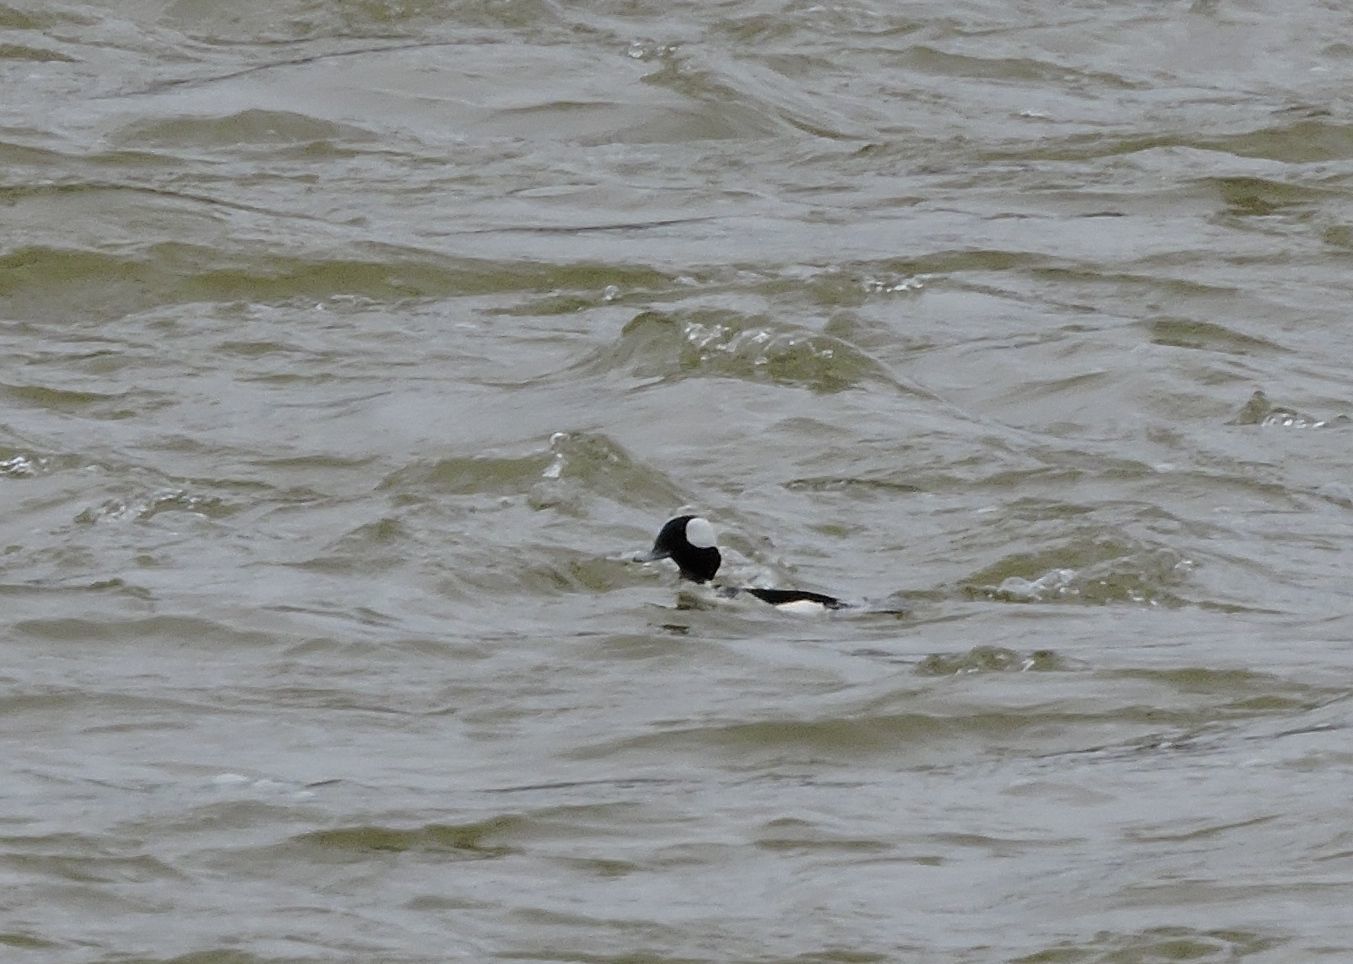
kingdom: Animalia
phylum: Chordata
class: Aves
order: Anseriformes
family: Anatidae
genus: Bucephala
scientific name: Bucephala albeola
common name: Bufflehead
